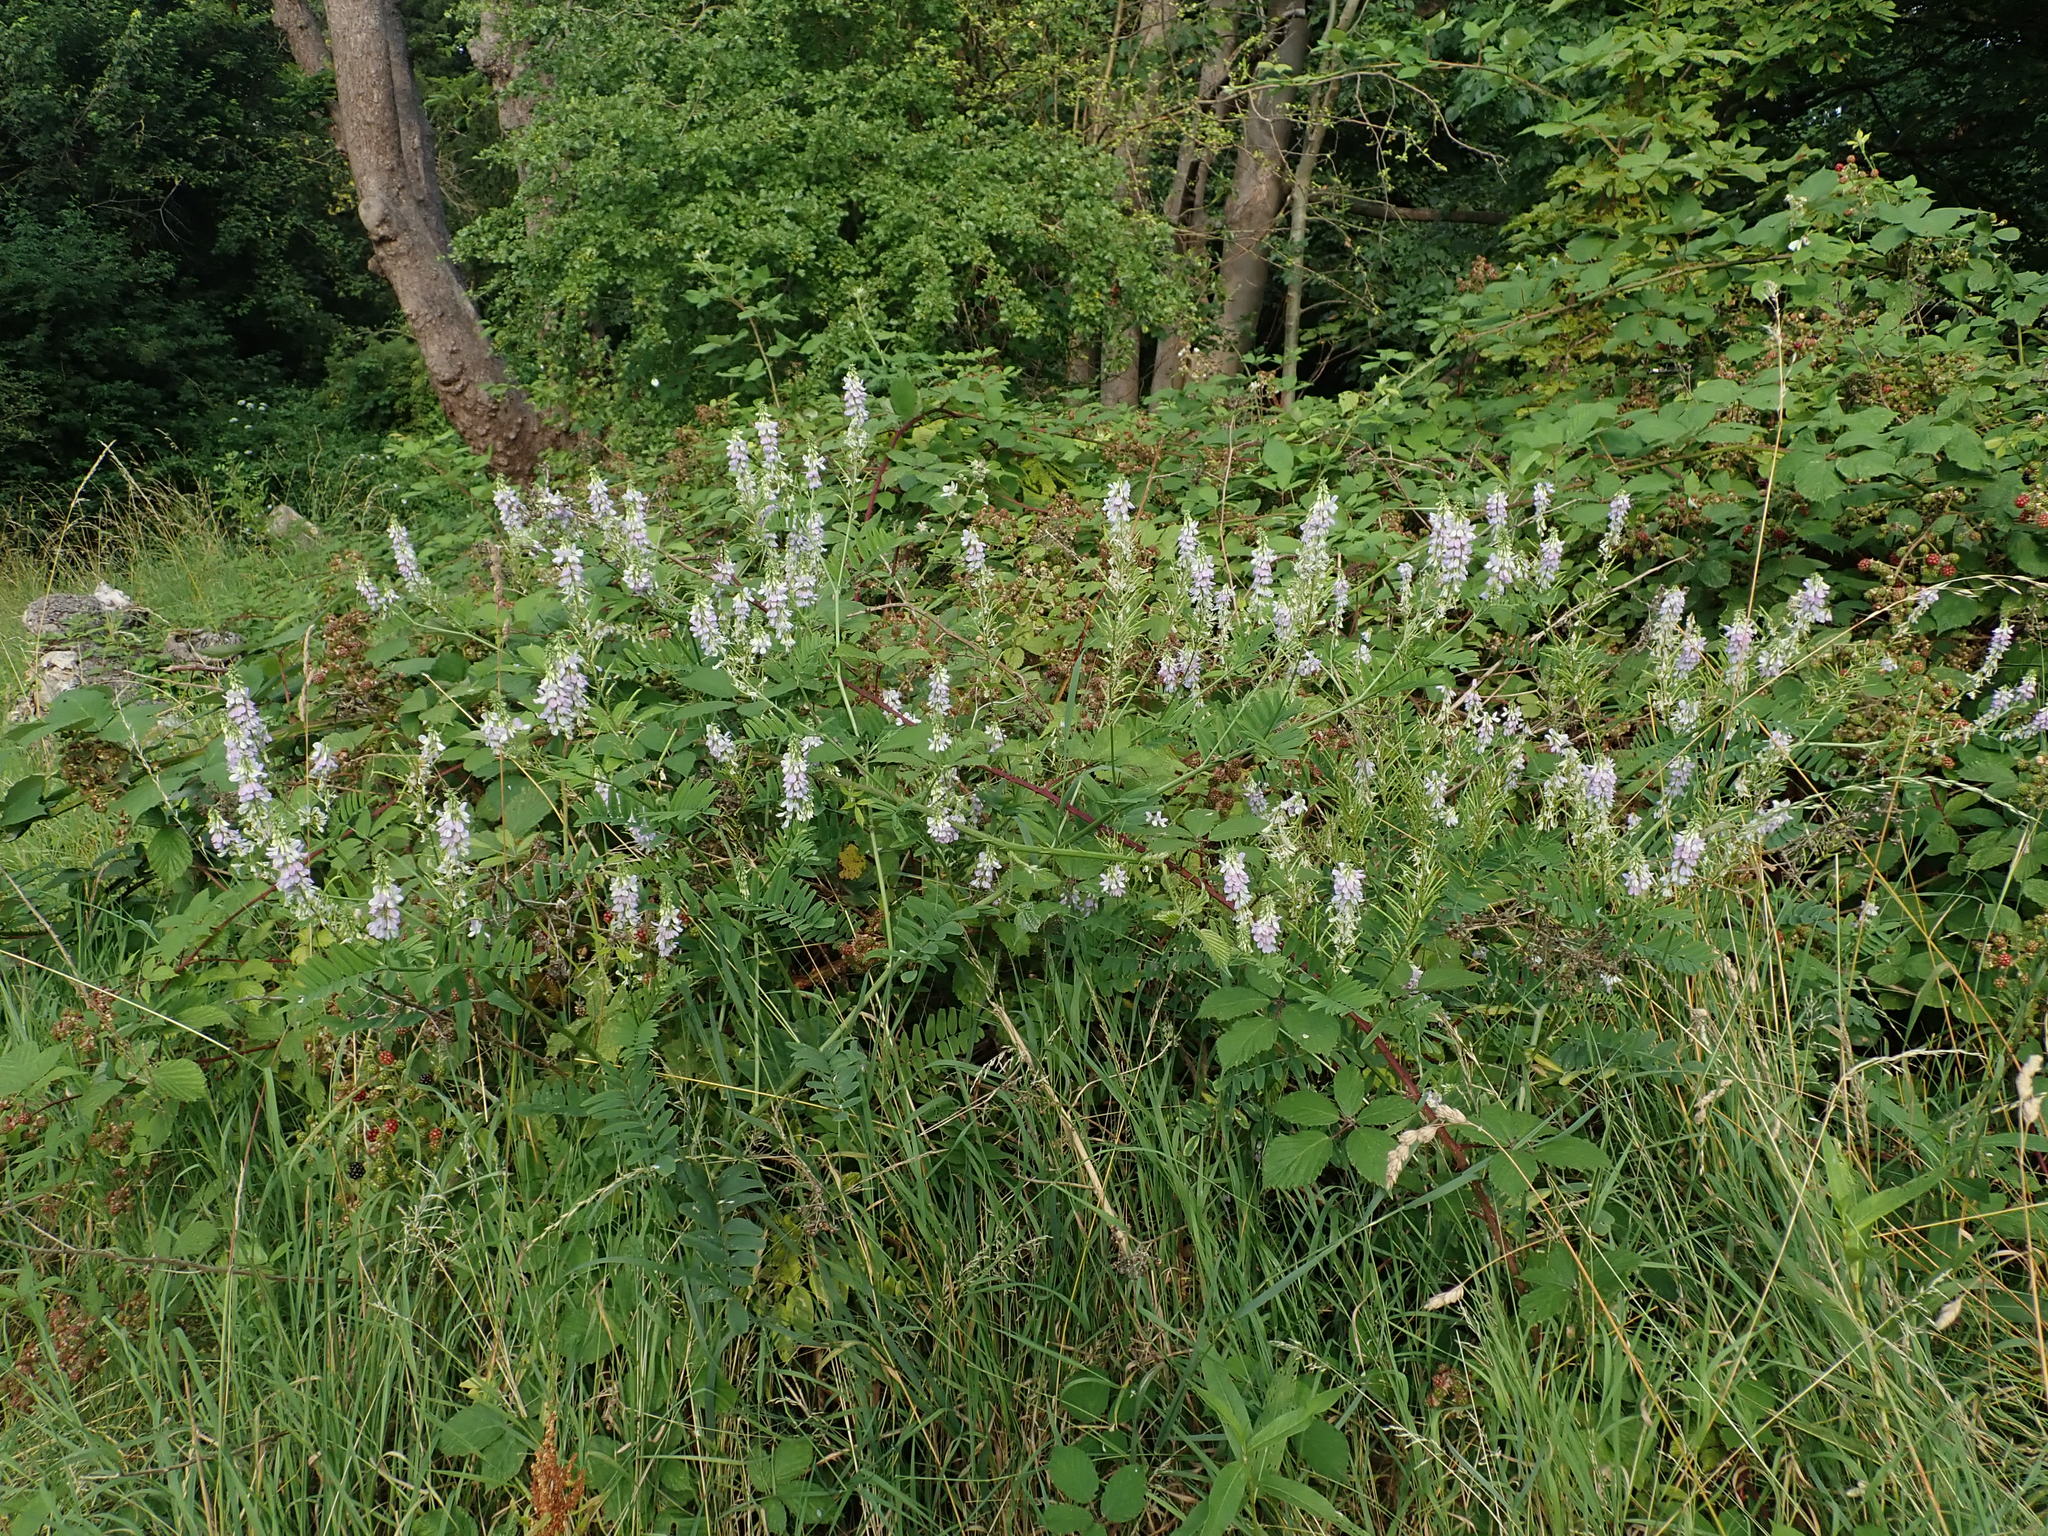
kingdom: Plantae
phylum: Tracheophyta
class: Magnoliopsida
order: Fabales
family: Fabaceae
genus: Galega
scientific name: Galega officinalis
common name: Goat's-rue
